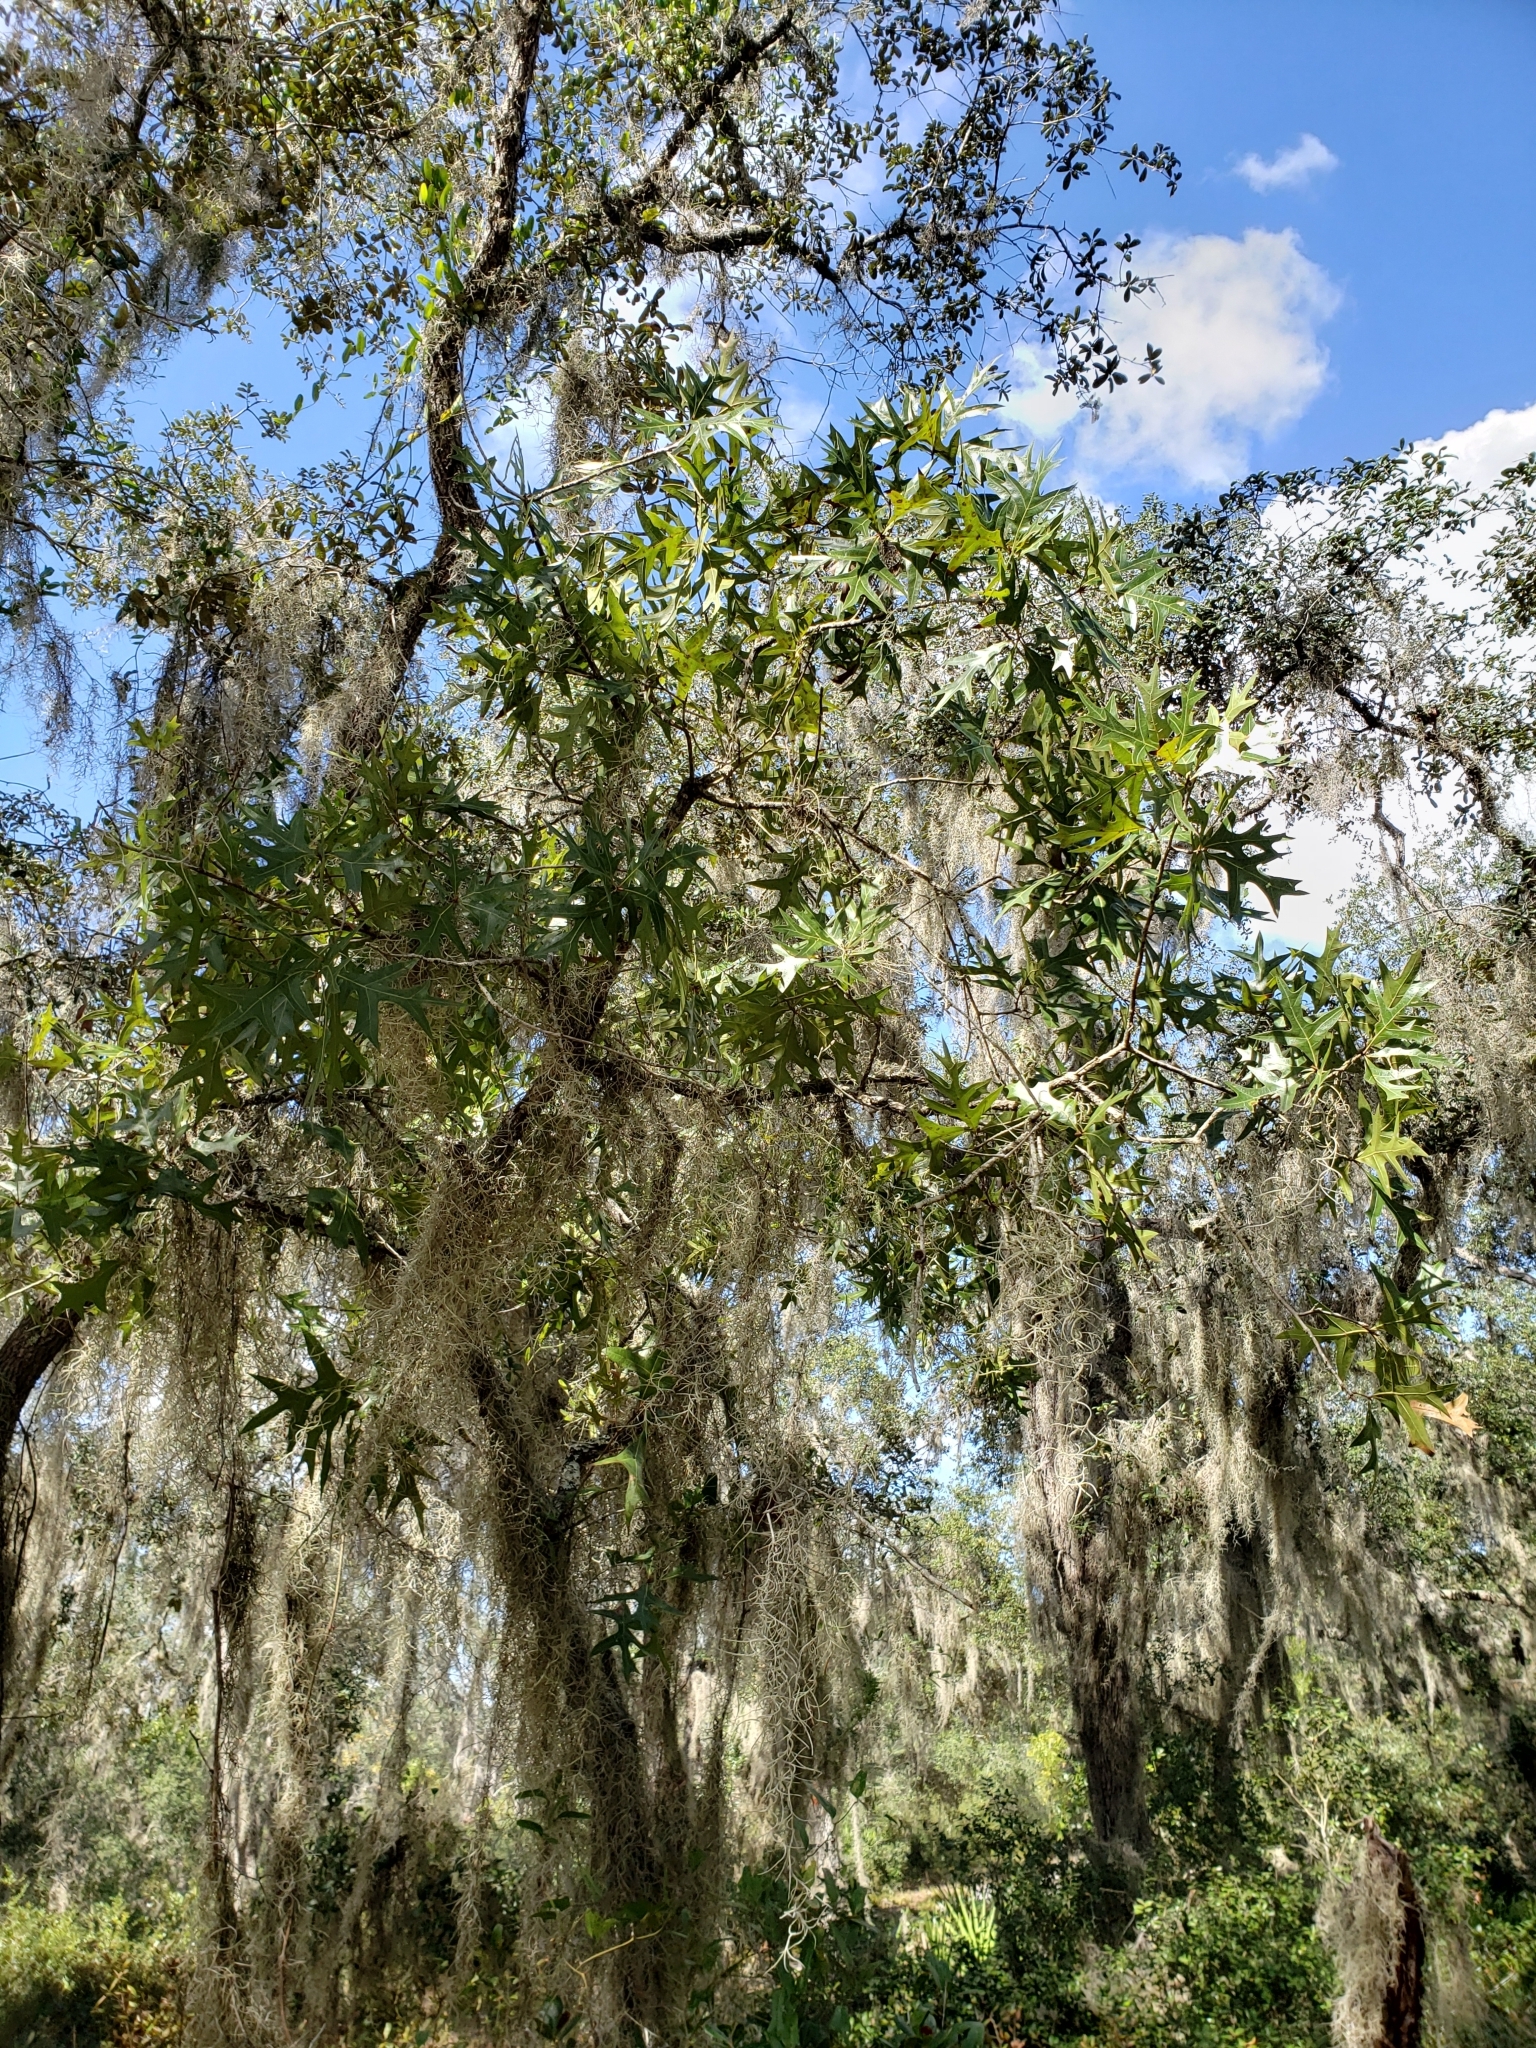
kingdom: Plantae
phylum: Tracheophyta
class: Magnoliopsida
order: Fagales
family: Fagaceae
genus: Quercus
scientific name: Quercus laevis
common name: Turkey oak
